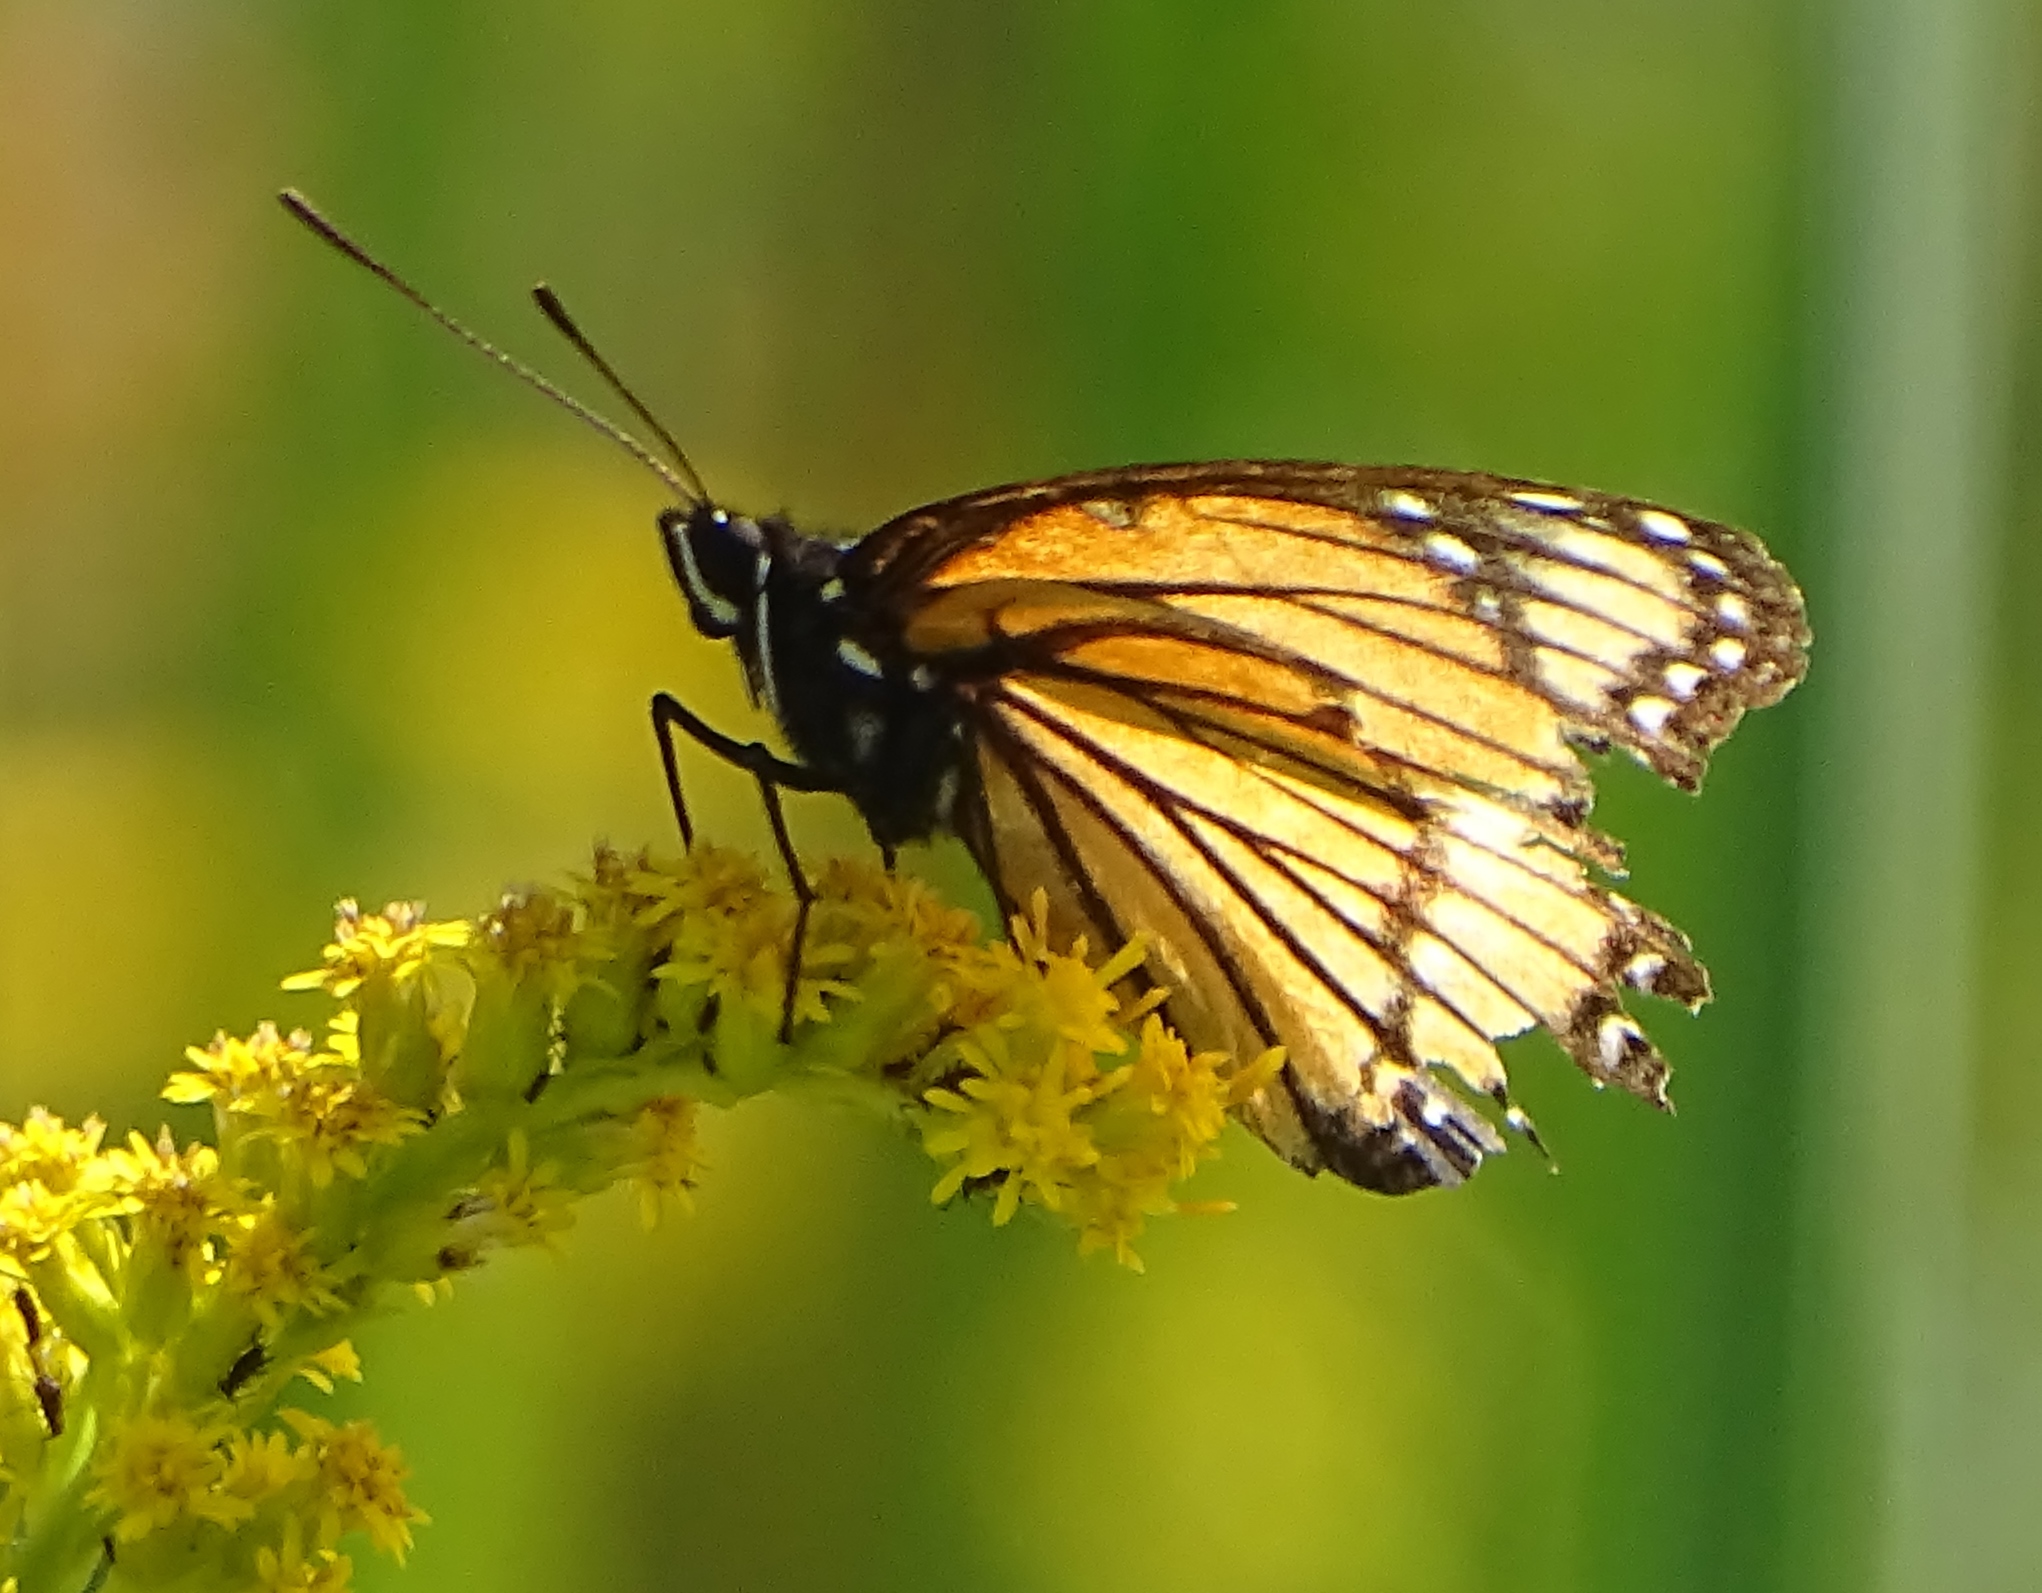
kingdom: Animalia
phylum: Arthropoda
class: Insecta
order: Lepidoptera
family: Nymphalidae
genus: Limenitis
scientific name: Limenitis archippus
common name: Viceroy
